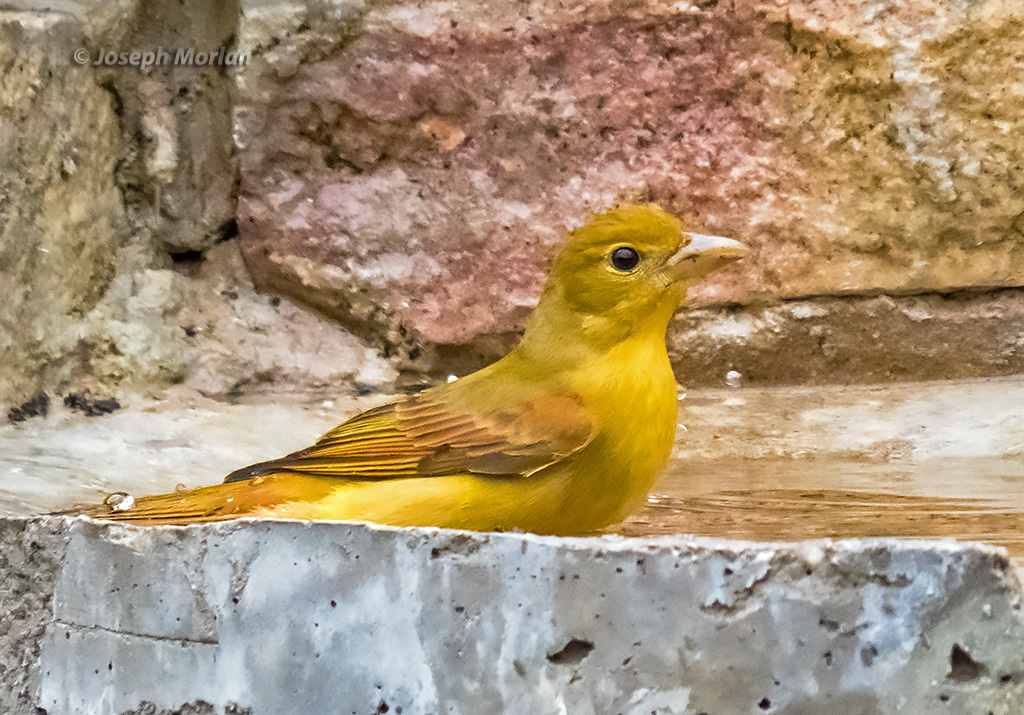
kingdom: Animalia
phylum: Chordata
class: Aves
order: Passeriformes
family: Cardinalidae
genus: Piranga
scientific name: Piranga rubra
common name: Summer tanager
